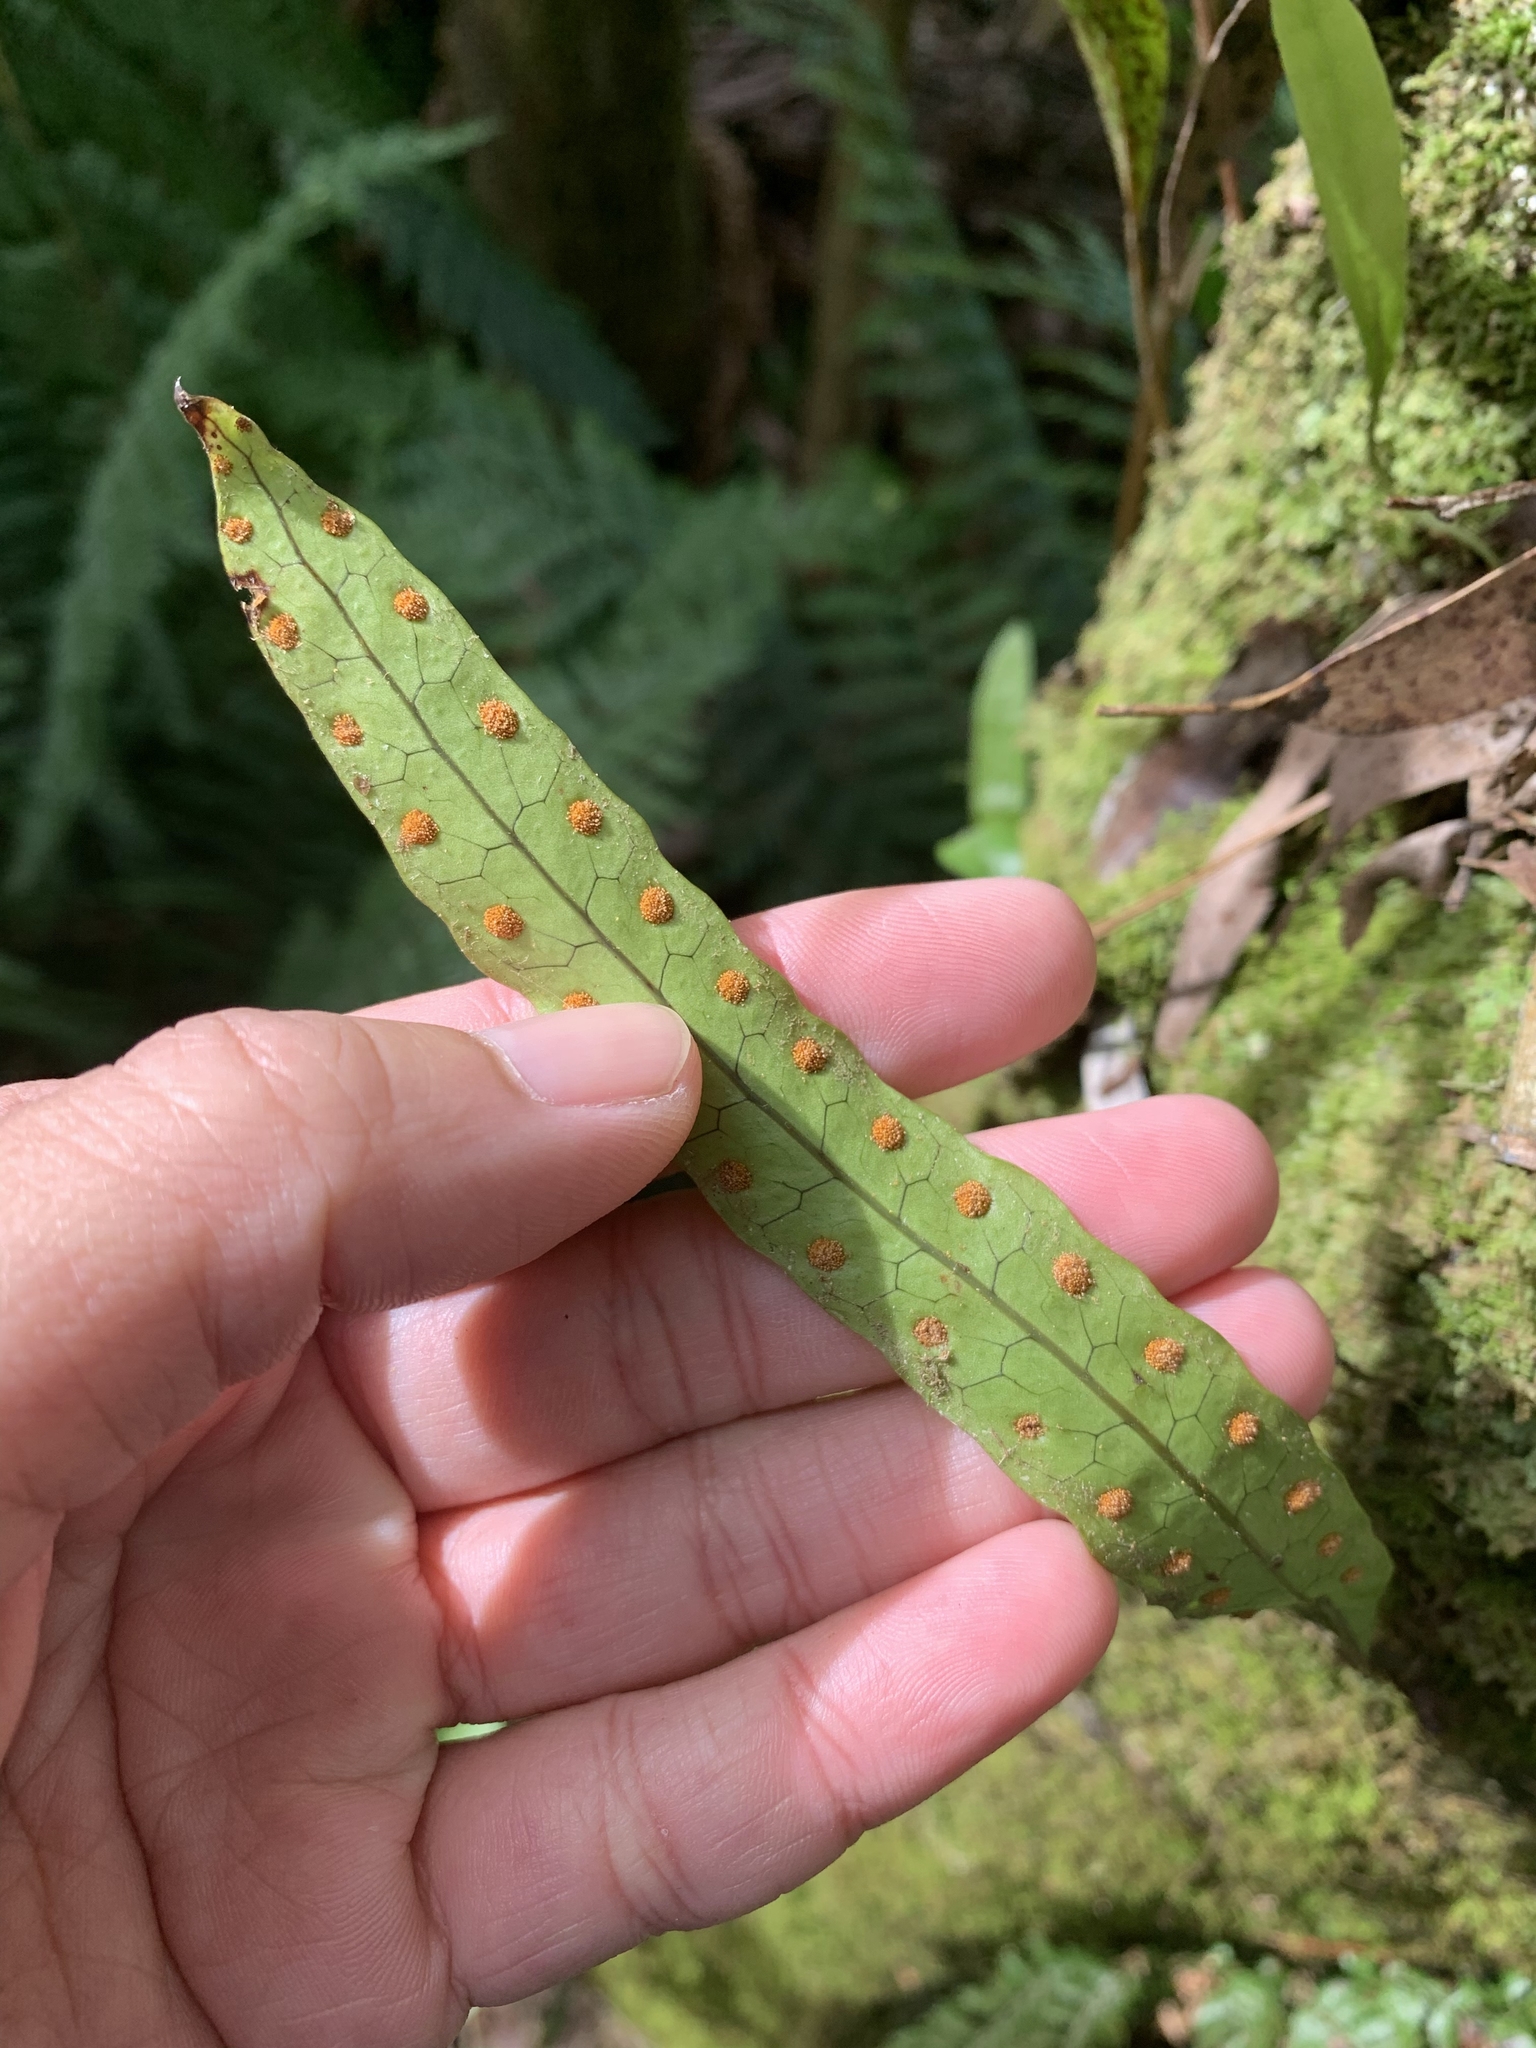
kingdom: Plantae
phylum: Tracheophyta
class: Polypodiopsida
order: Polypodiales
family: Polypodiaceae
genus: Lecanopteris
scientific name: Lecanopteris pustulata
